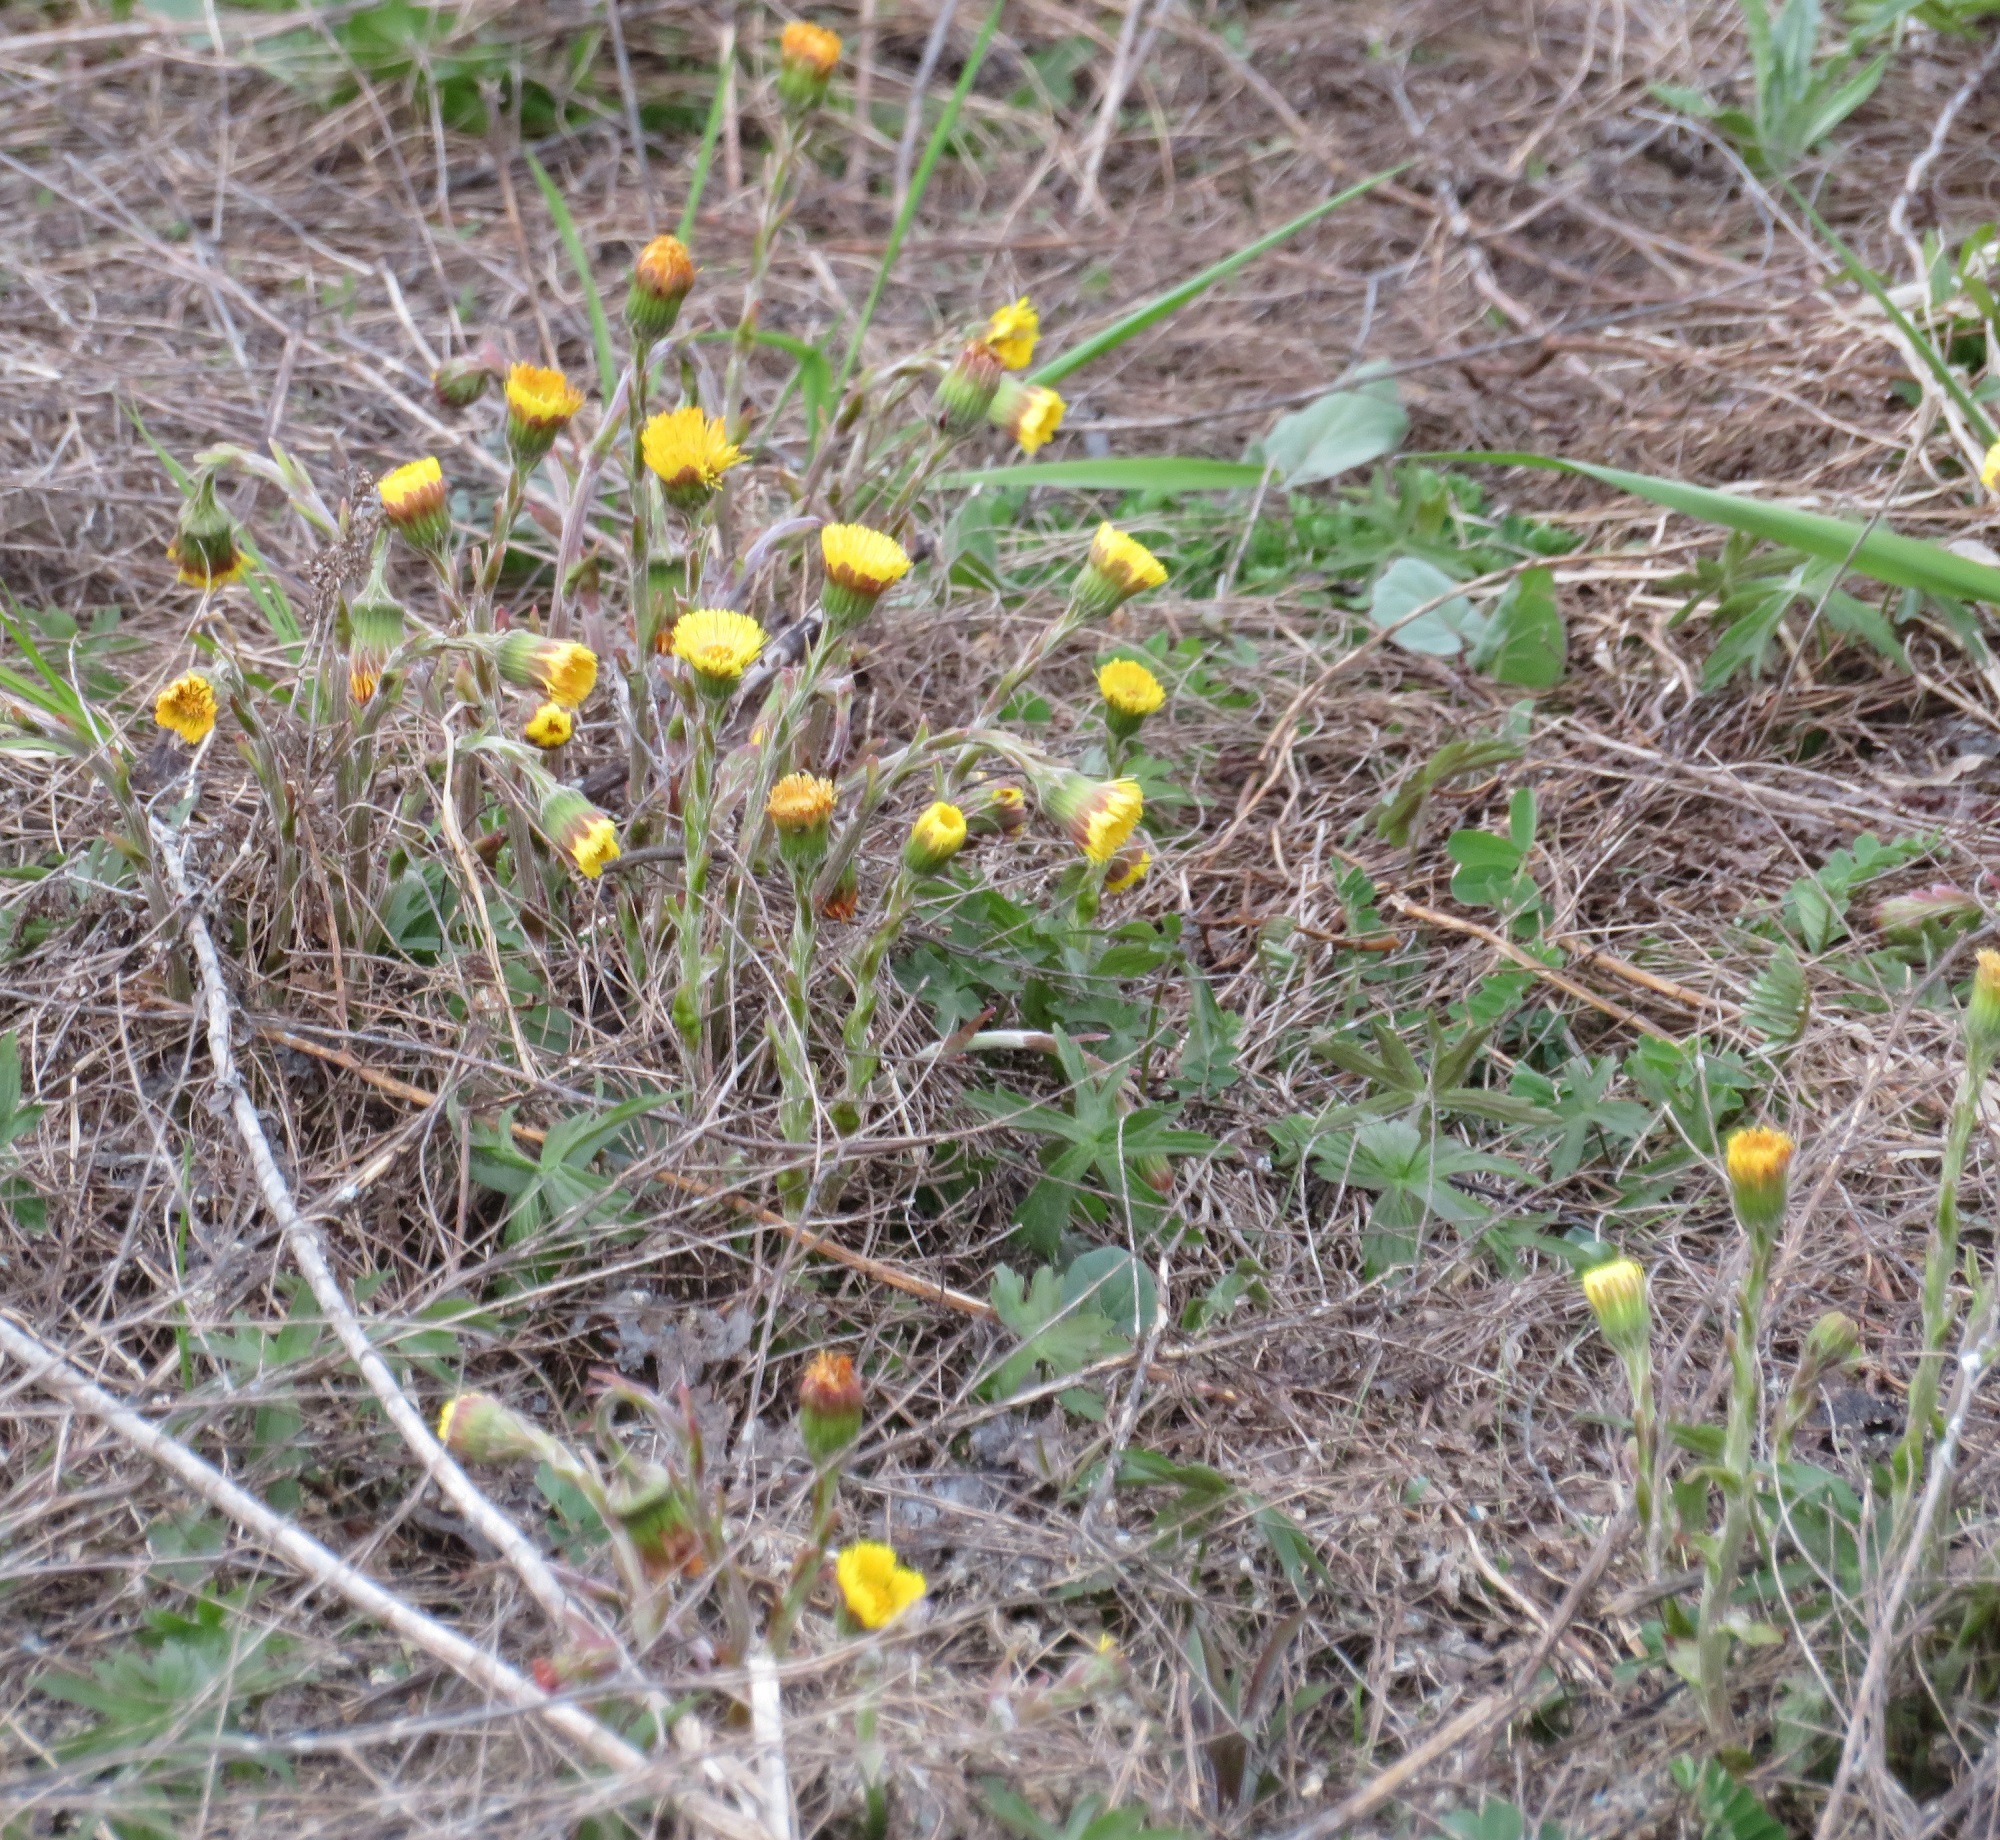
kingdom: Plantae
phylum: Tracheophyta
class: Magnoliopsida
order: Asterales
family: Asteraceae
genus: Tussilago
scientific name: Tussilago farfara
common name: Coltsfoot
